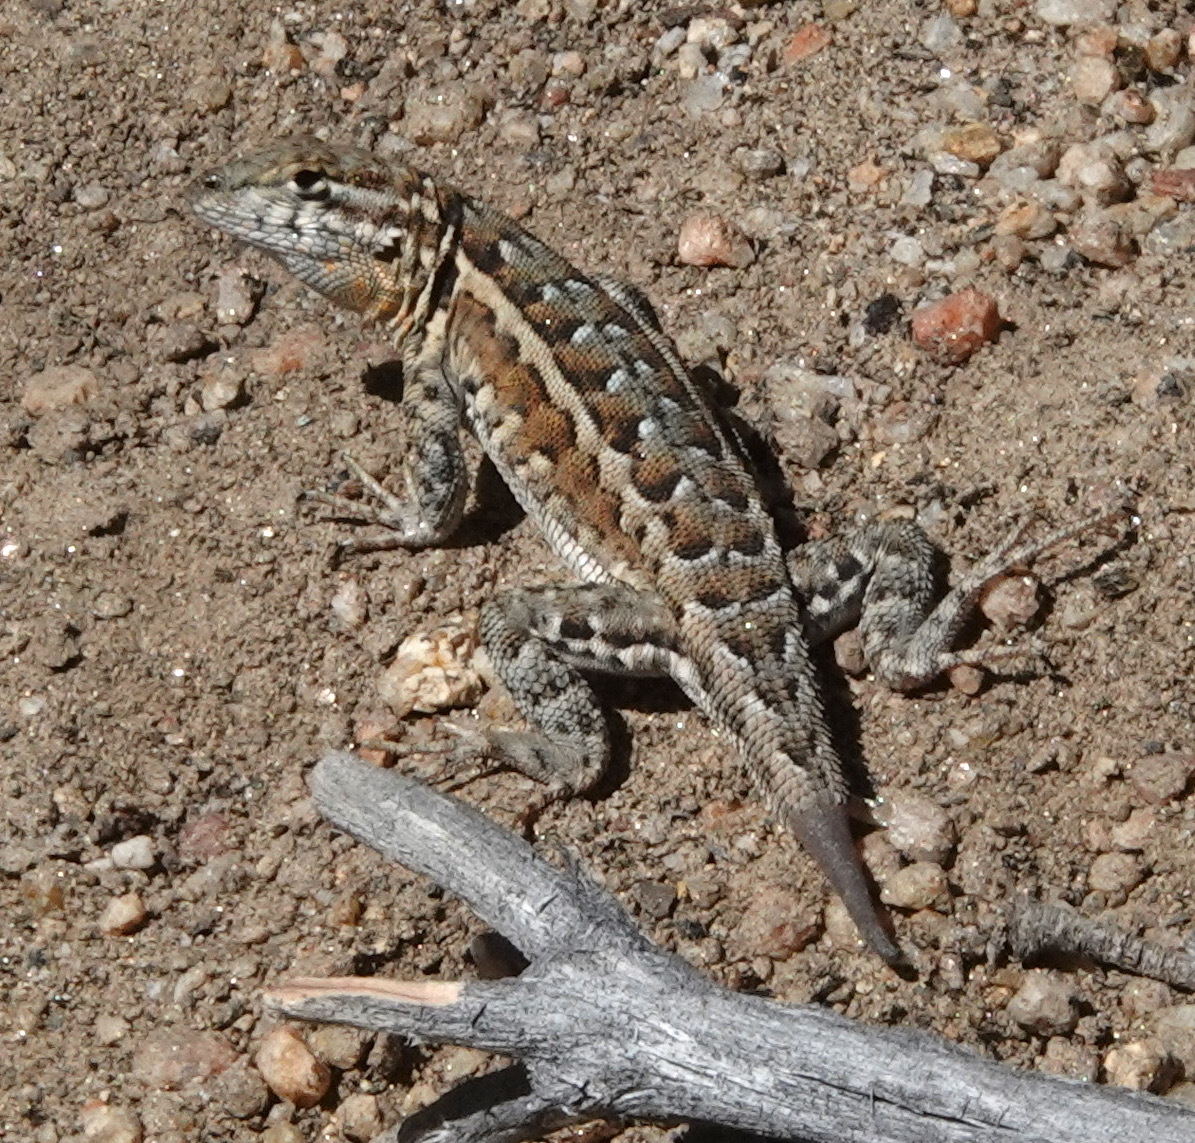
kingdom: Animalia
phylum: Chordata
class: Squamata
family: Phrynosomatidae
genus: Uta
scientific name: Uta stansburiana
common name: Side-blotched lizard
